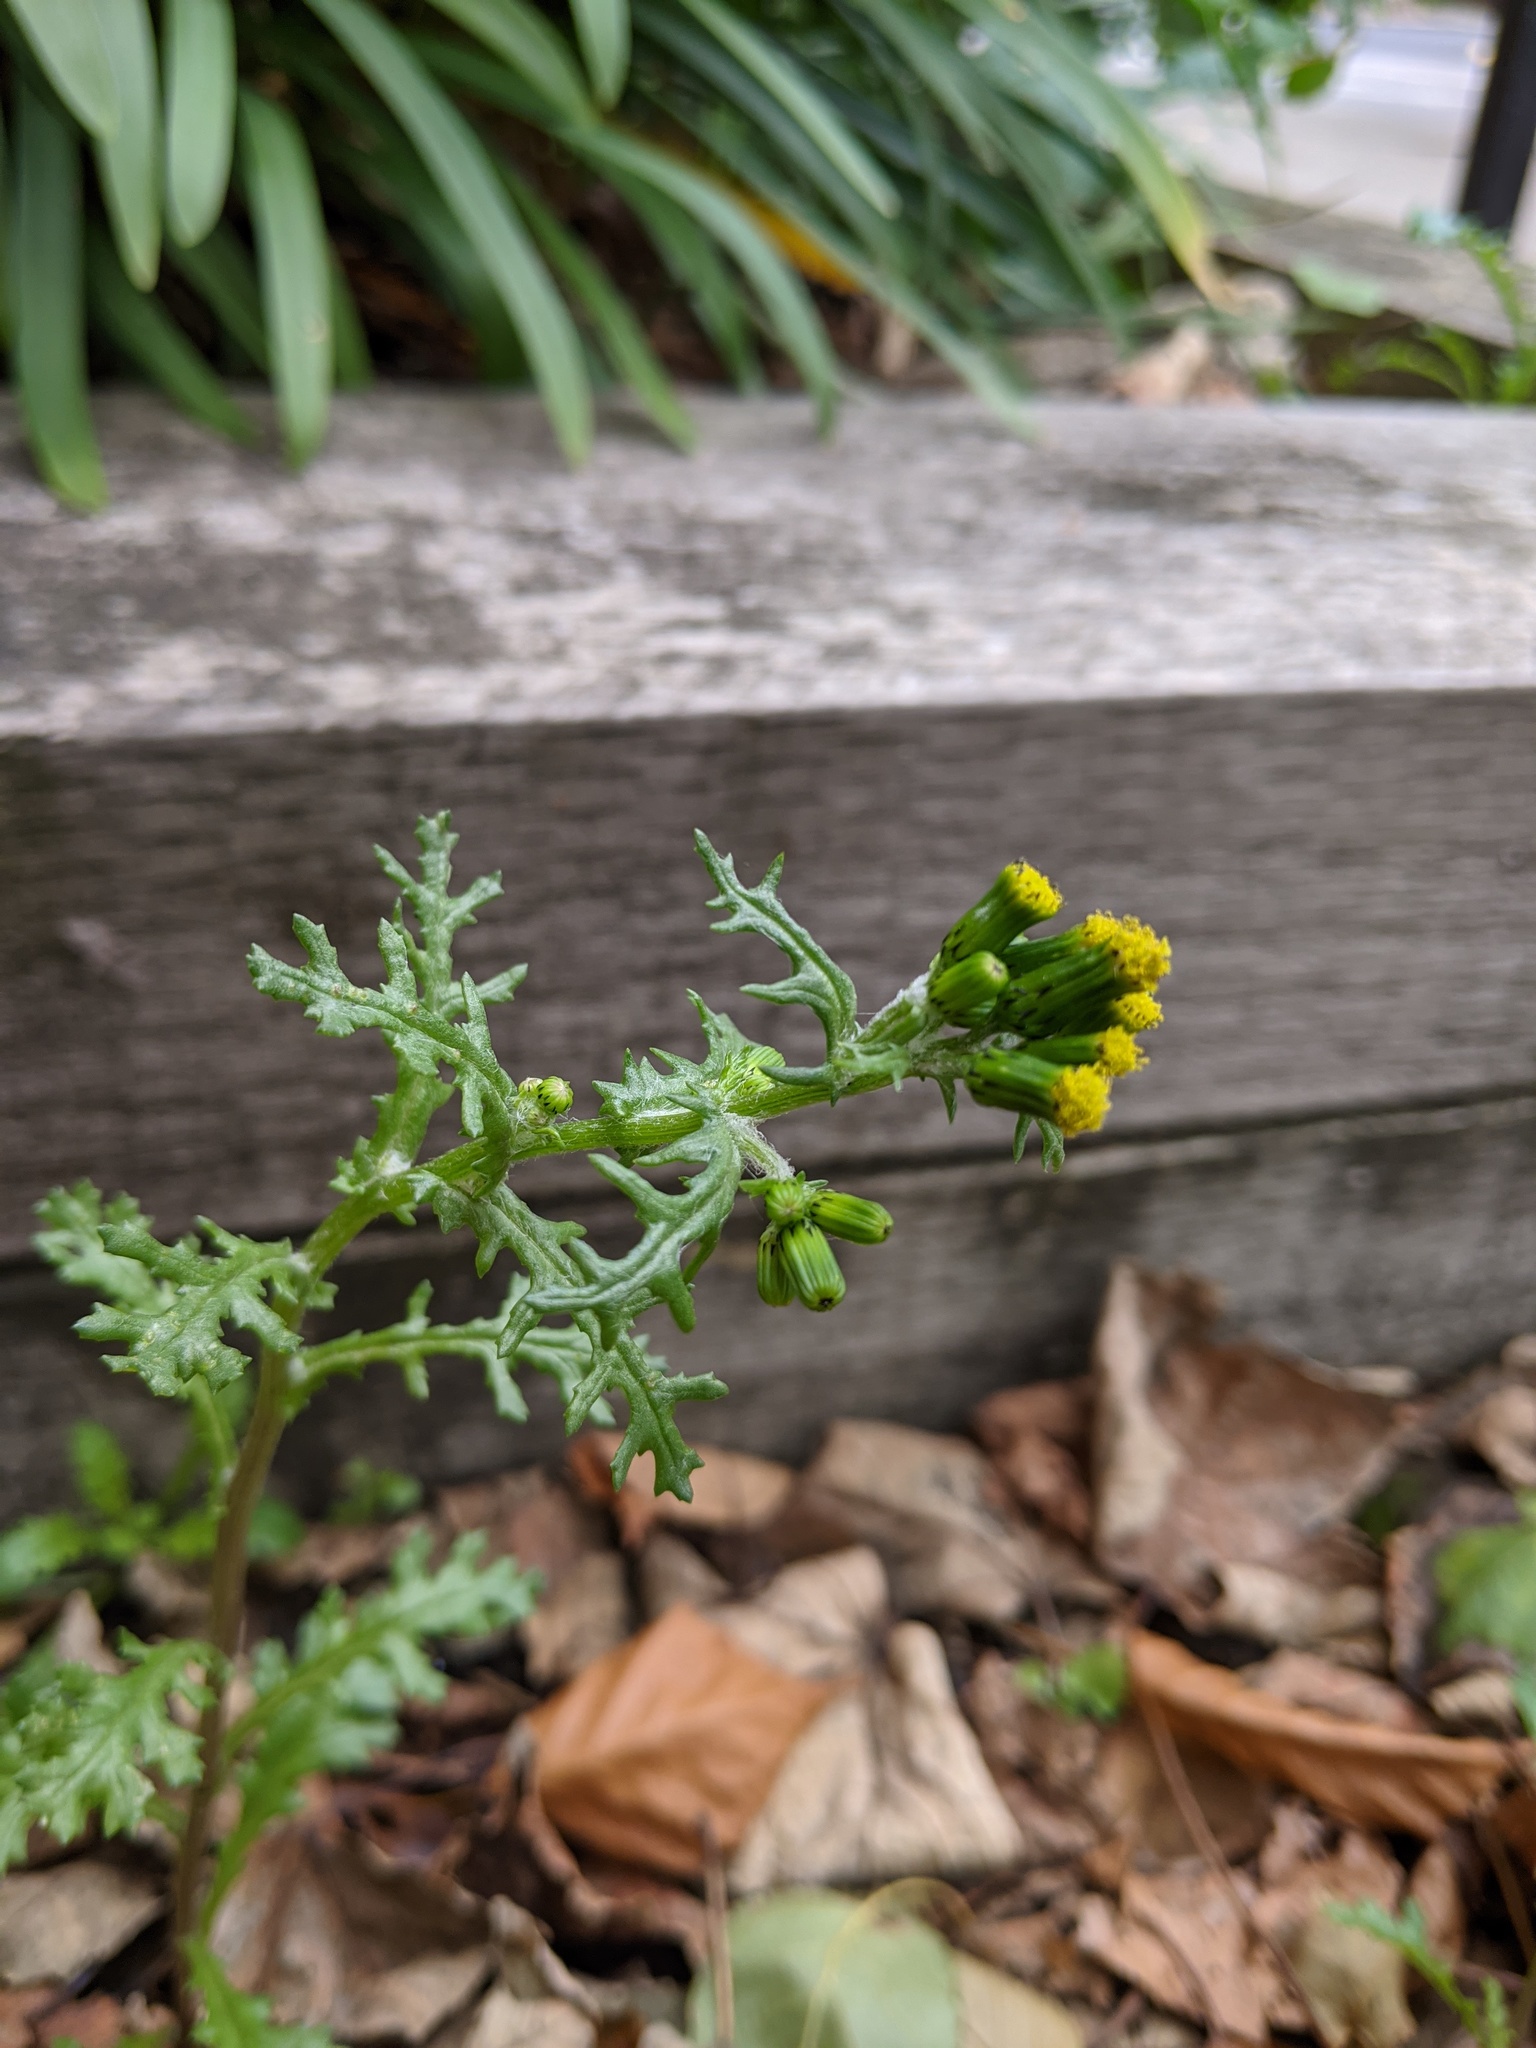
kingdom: Plantae
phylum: Tracheophyta
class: Magnoliopsida
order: Asterales
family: Asteraceae
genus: Senecio
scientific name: Senecio vulgaris
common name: Old-man-in-the-spring
